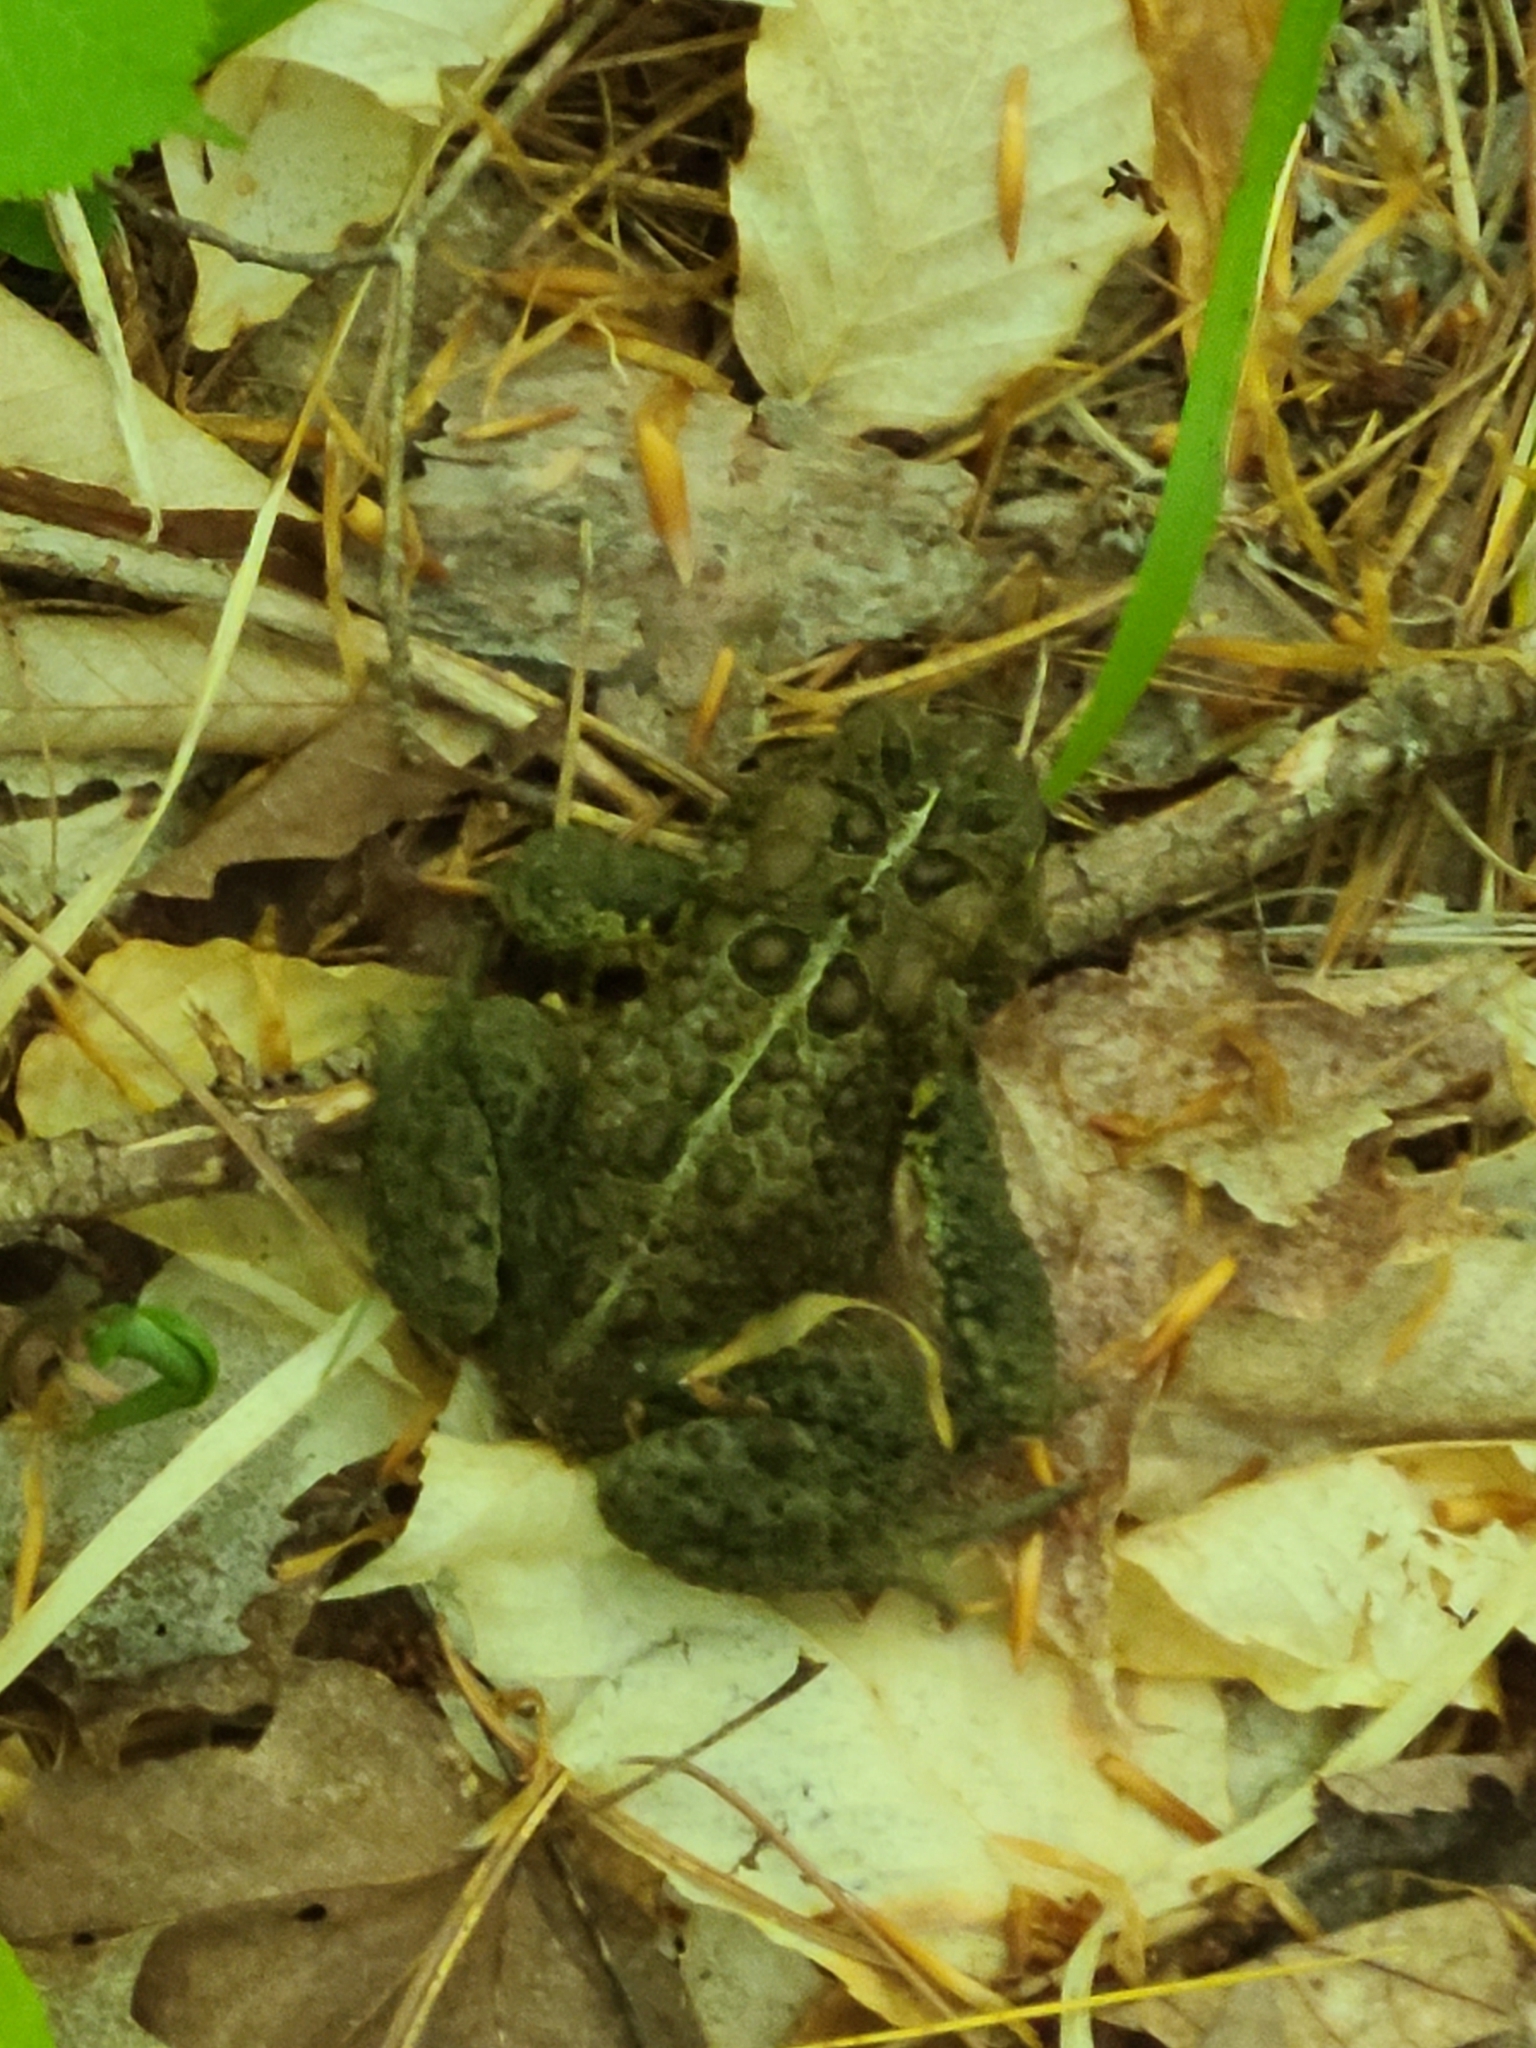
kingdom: Animalia
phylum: Chordata
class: Amphibia
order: Anura
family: Bufonidae
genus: Anaxyrus
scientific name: Anaxyrus americanus
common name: American toad
